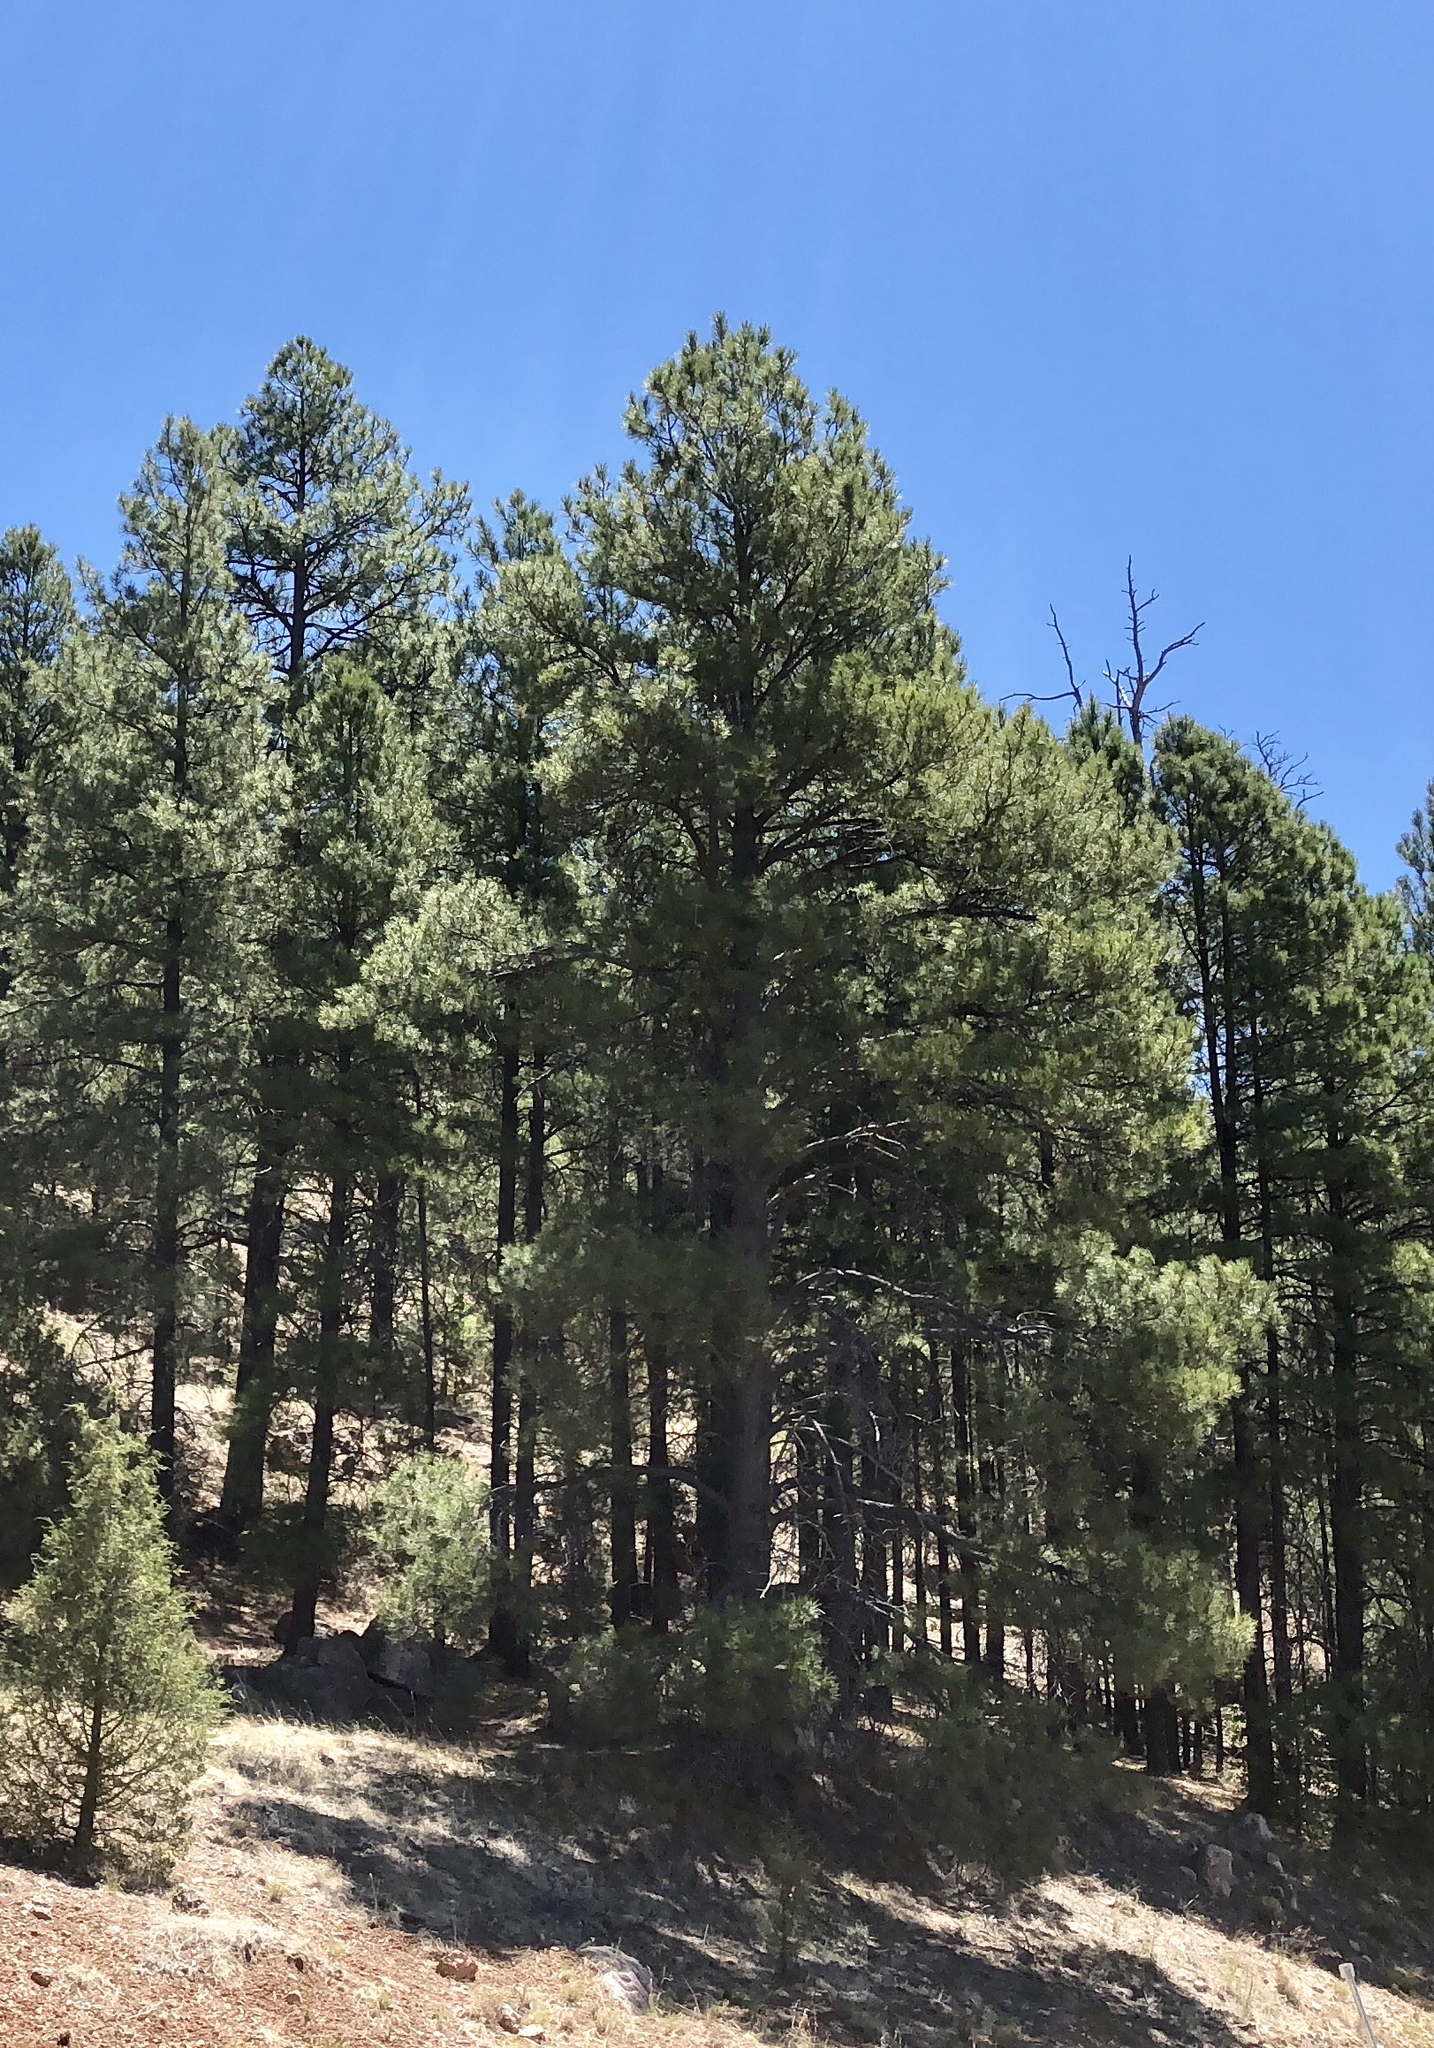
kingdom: Plantae
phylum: Tracheophyta
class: Pinopsida
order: Pinales
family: Pinaceae
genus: Pinus
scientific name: Pinus ponderosa
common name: Western yellow-pine
